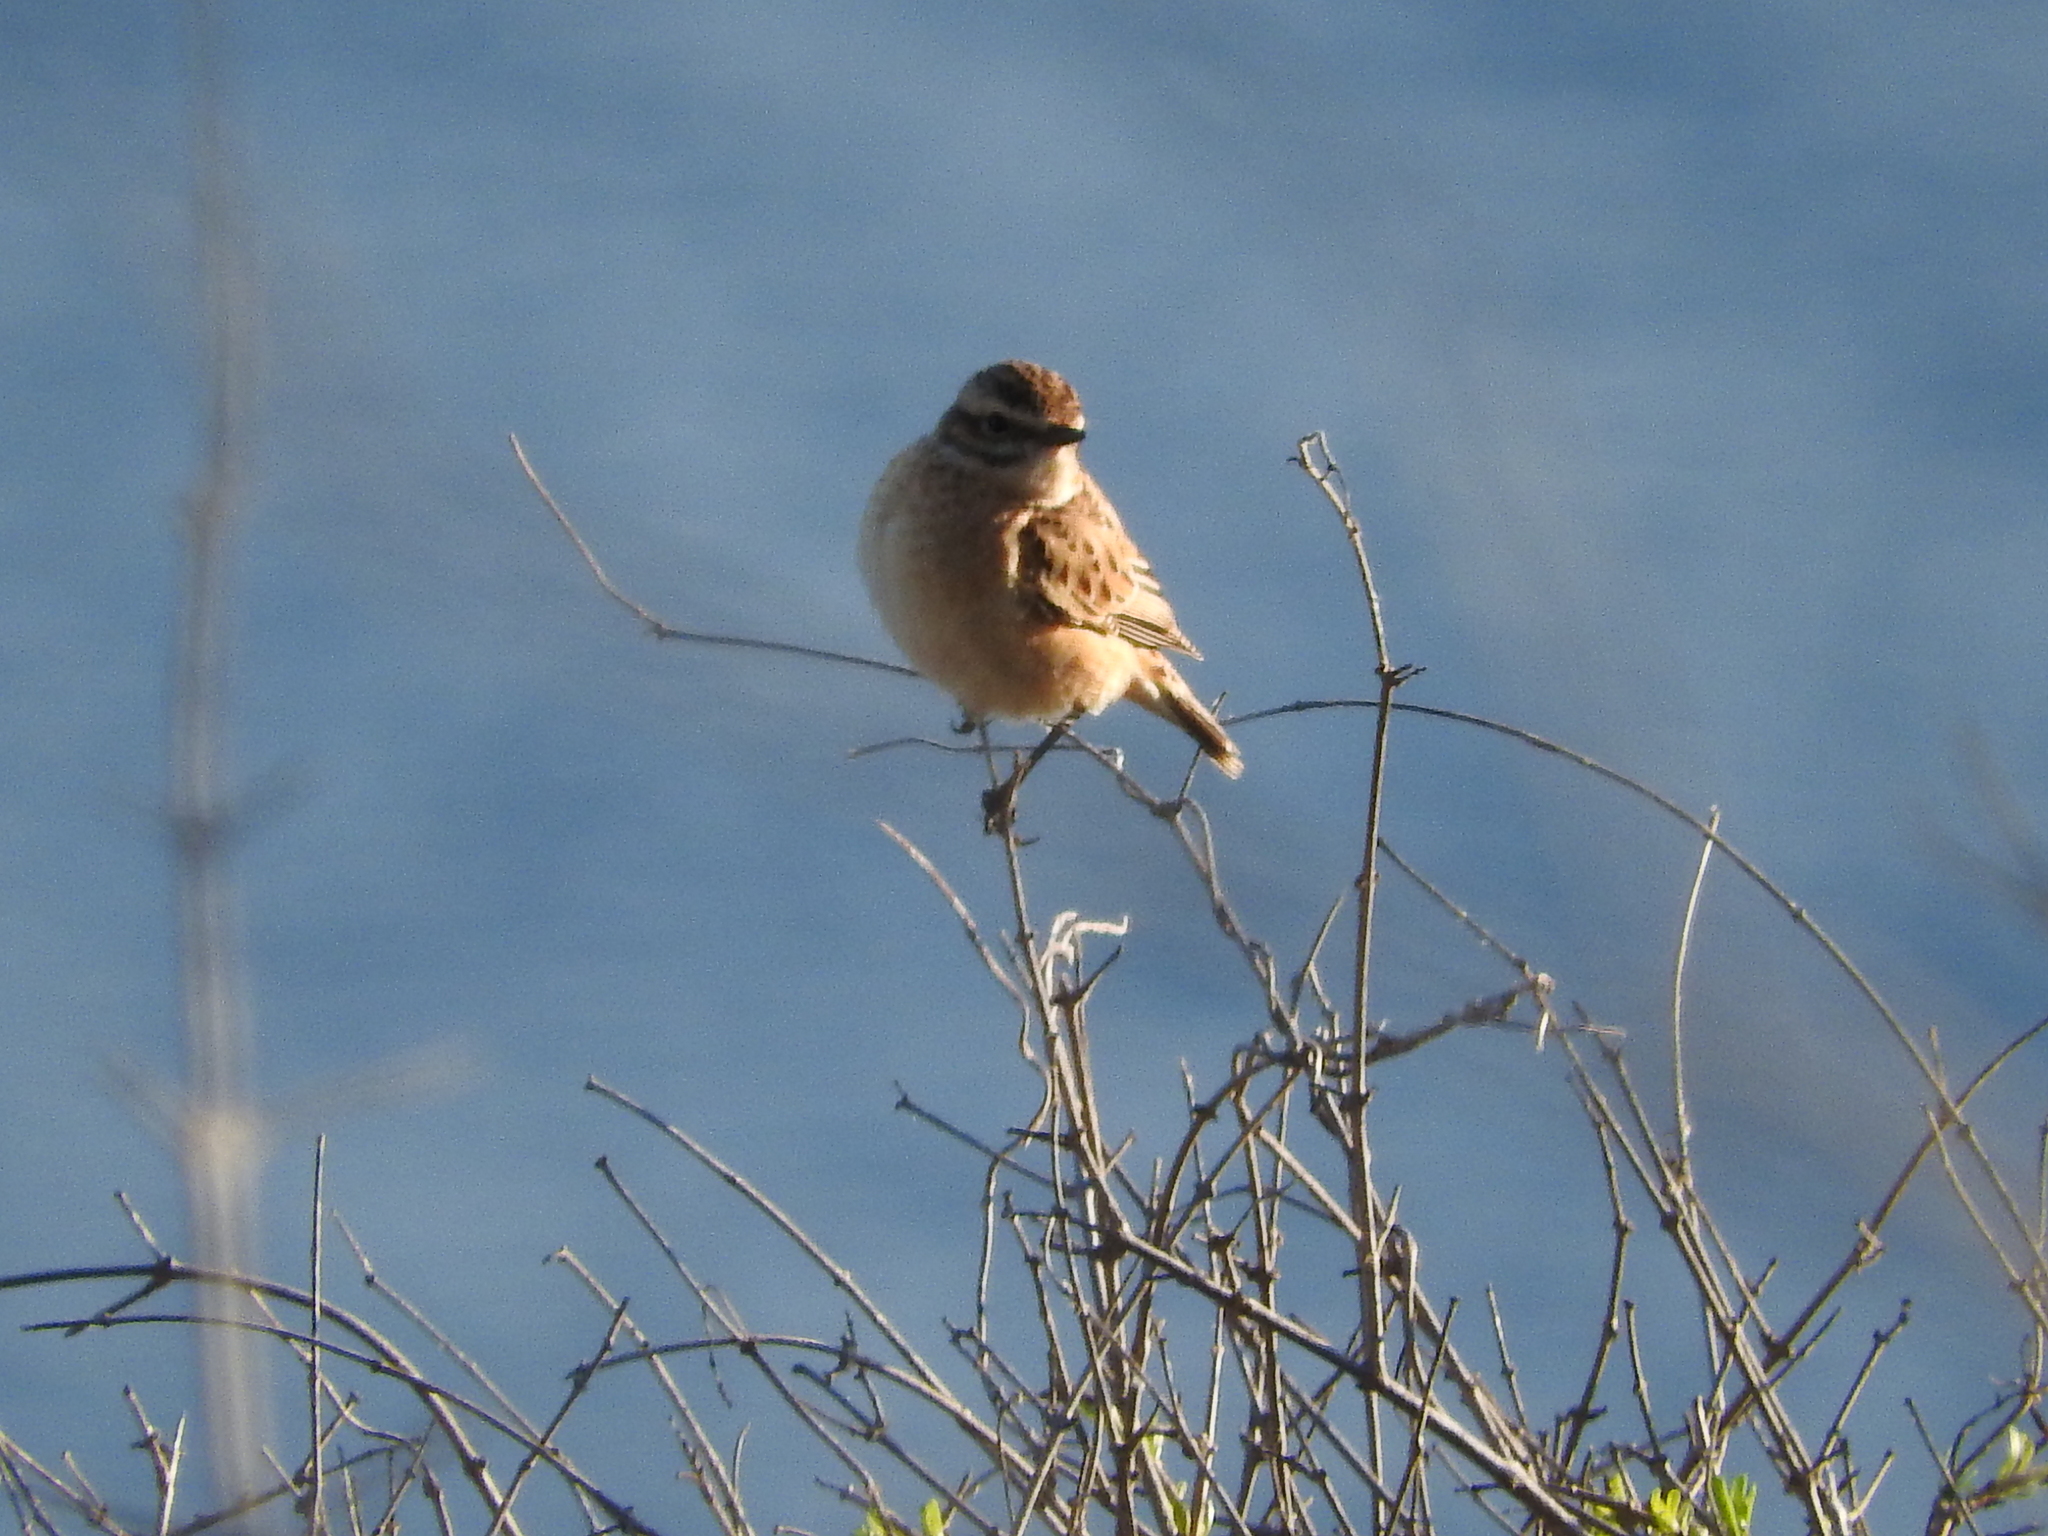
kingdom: Animalia
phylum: Chordata
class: Aves
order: Passeriformes
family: Muscicapidae
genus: Saxicola
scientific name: Saxicola rubetra
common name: Whinchat
